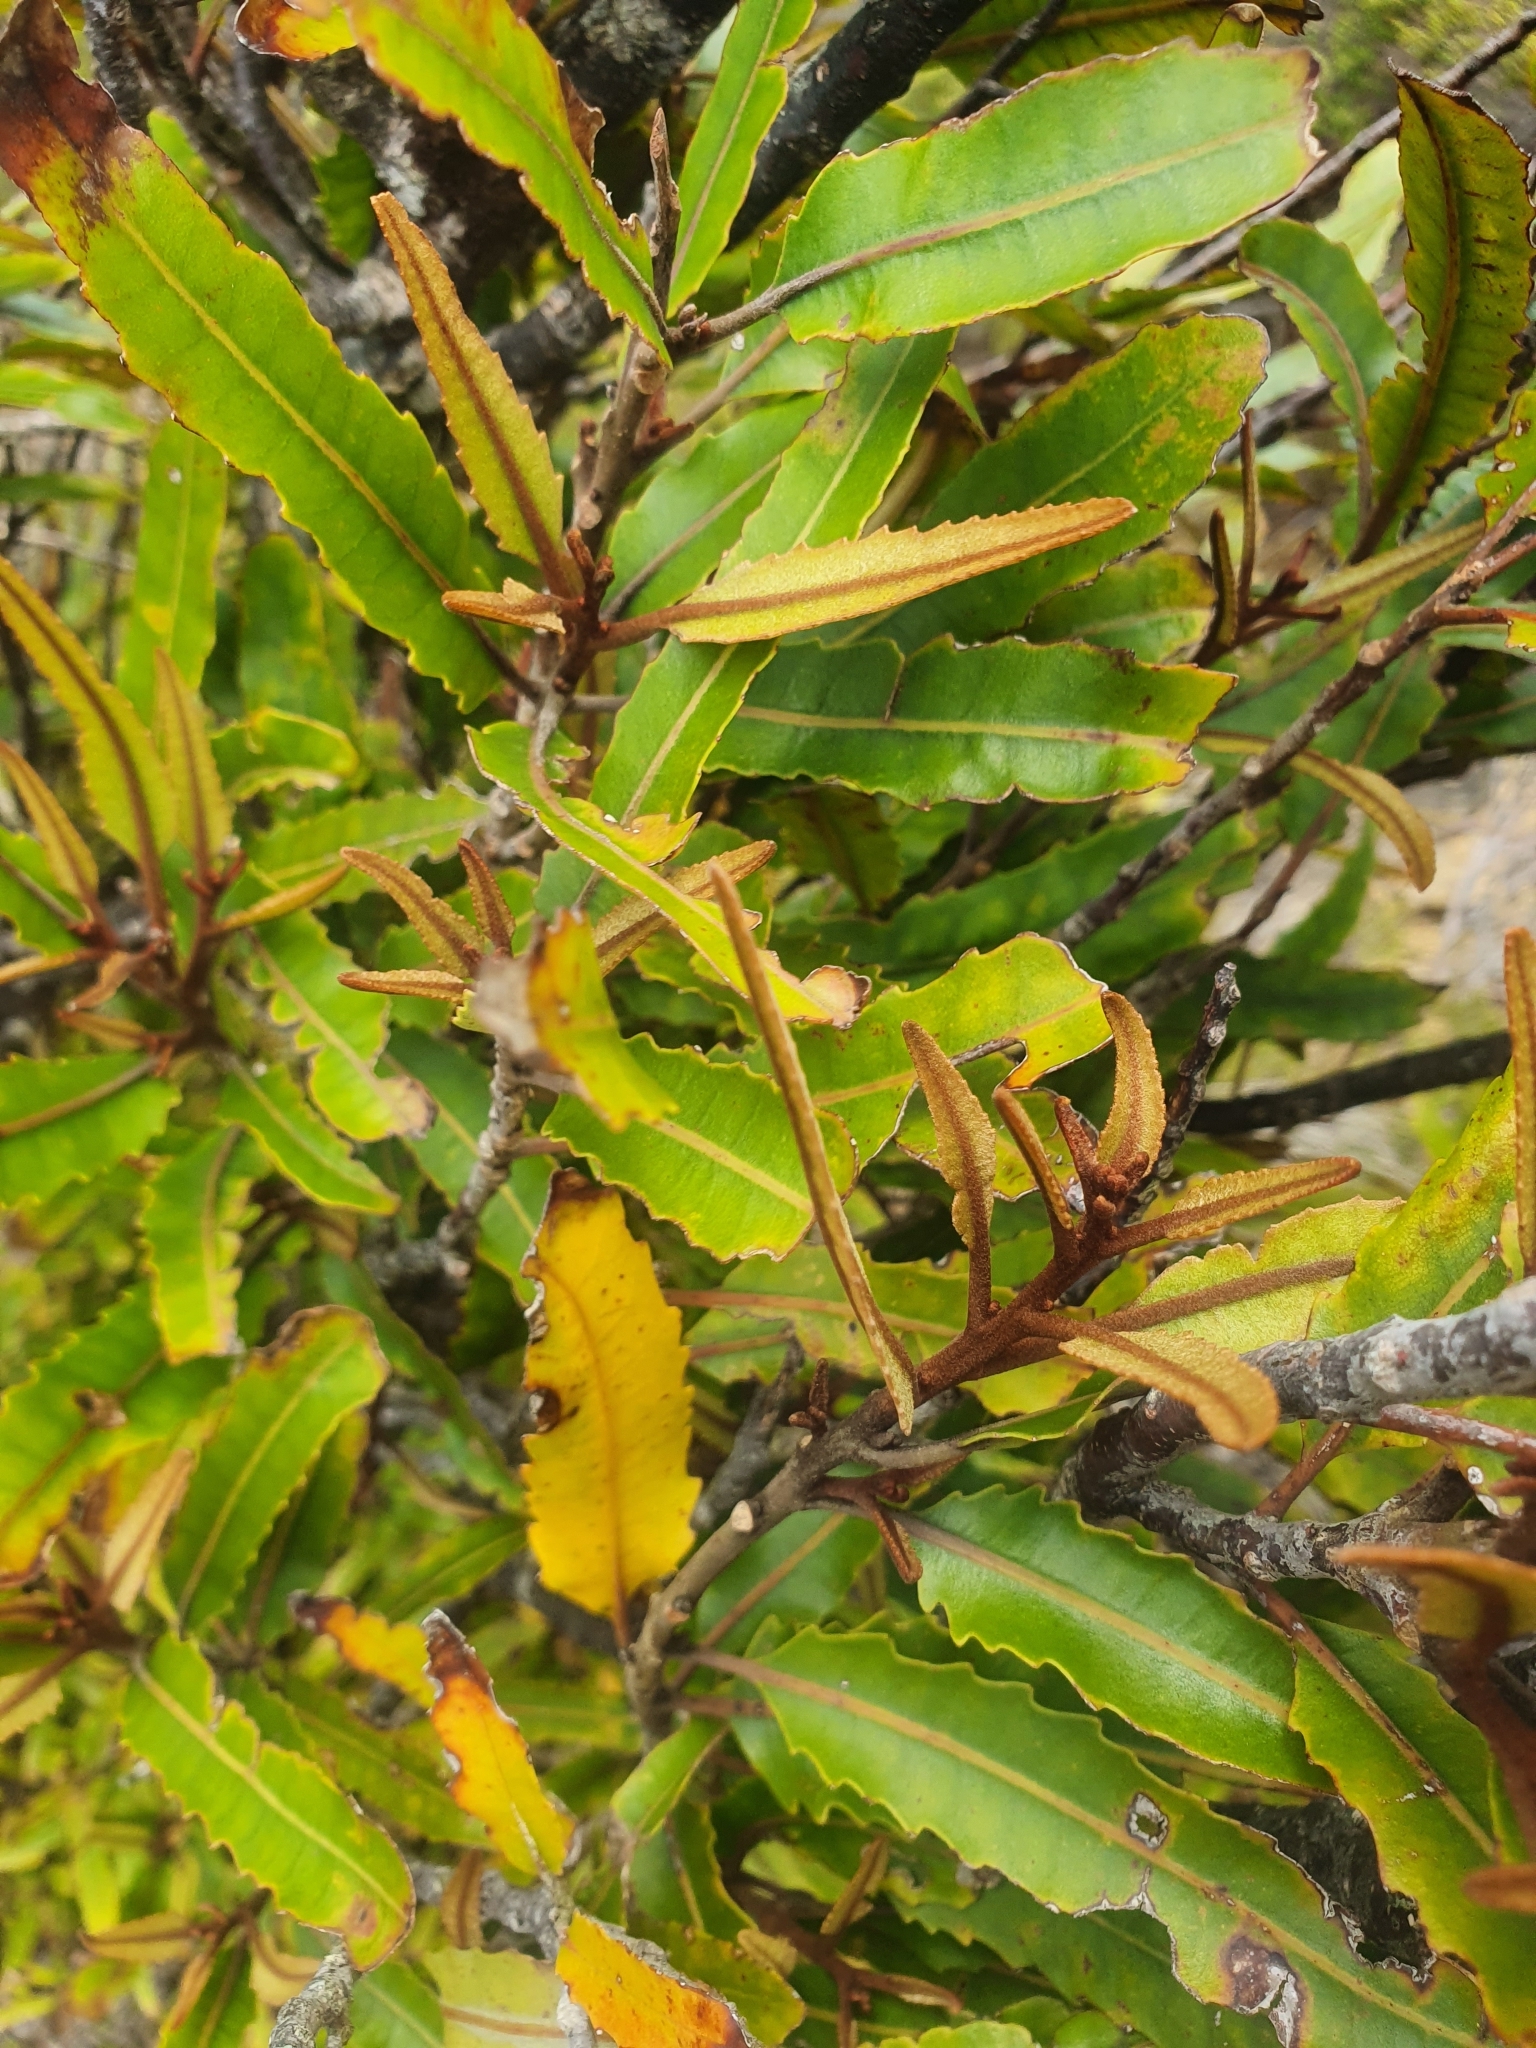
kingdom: Plantae
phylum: Tracheophyta
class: Magnoliopsida
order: Proteales
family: Proteaceae
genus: Knightia
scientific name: Knightia excelsa
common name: New zealand-honeysuckle
